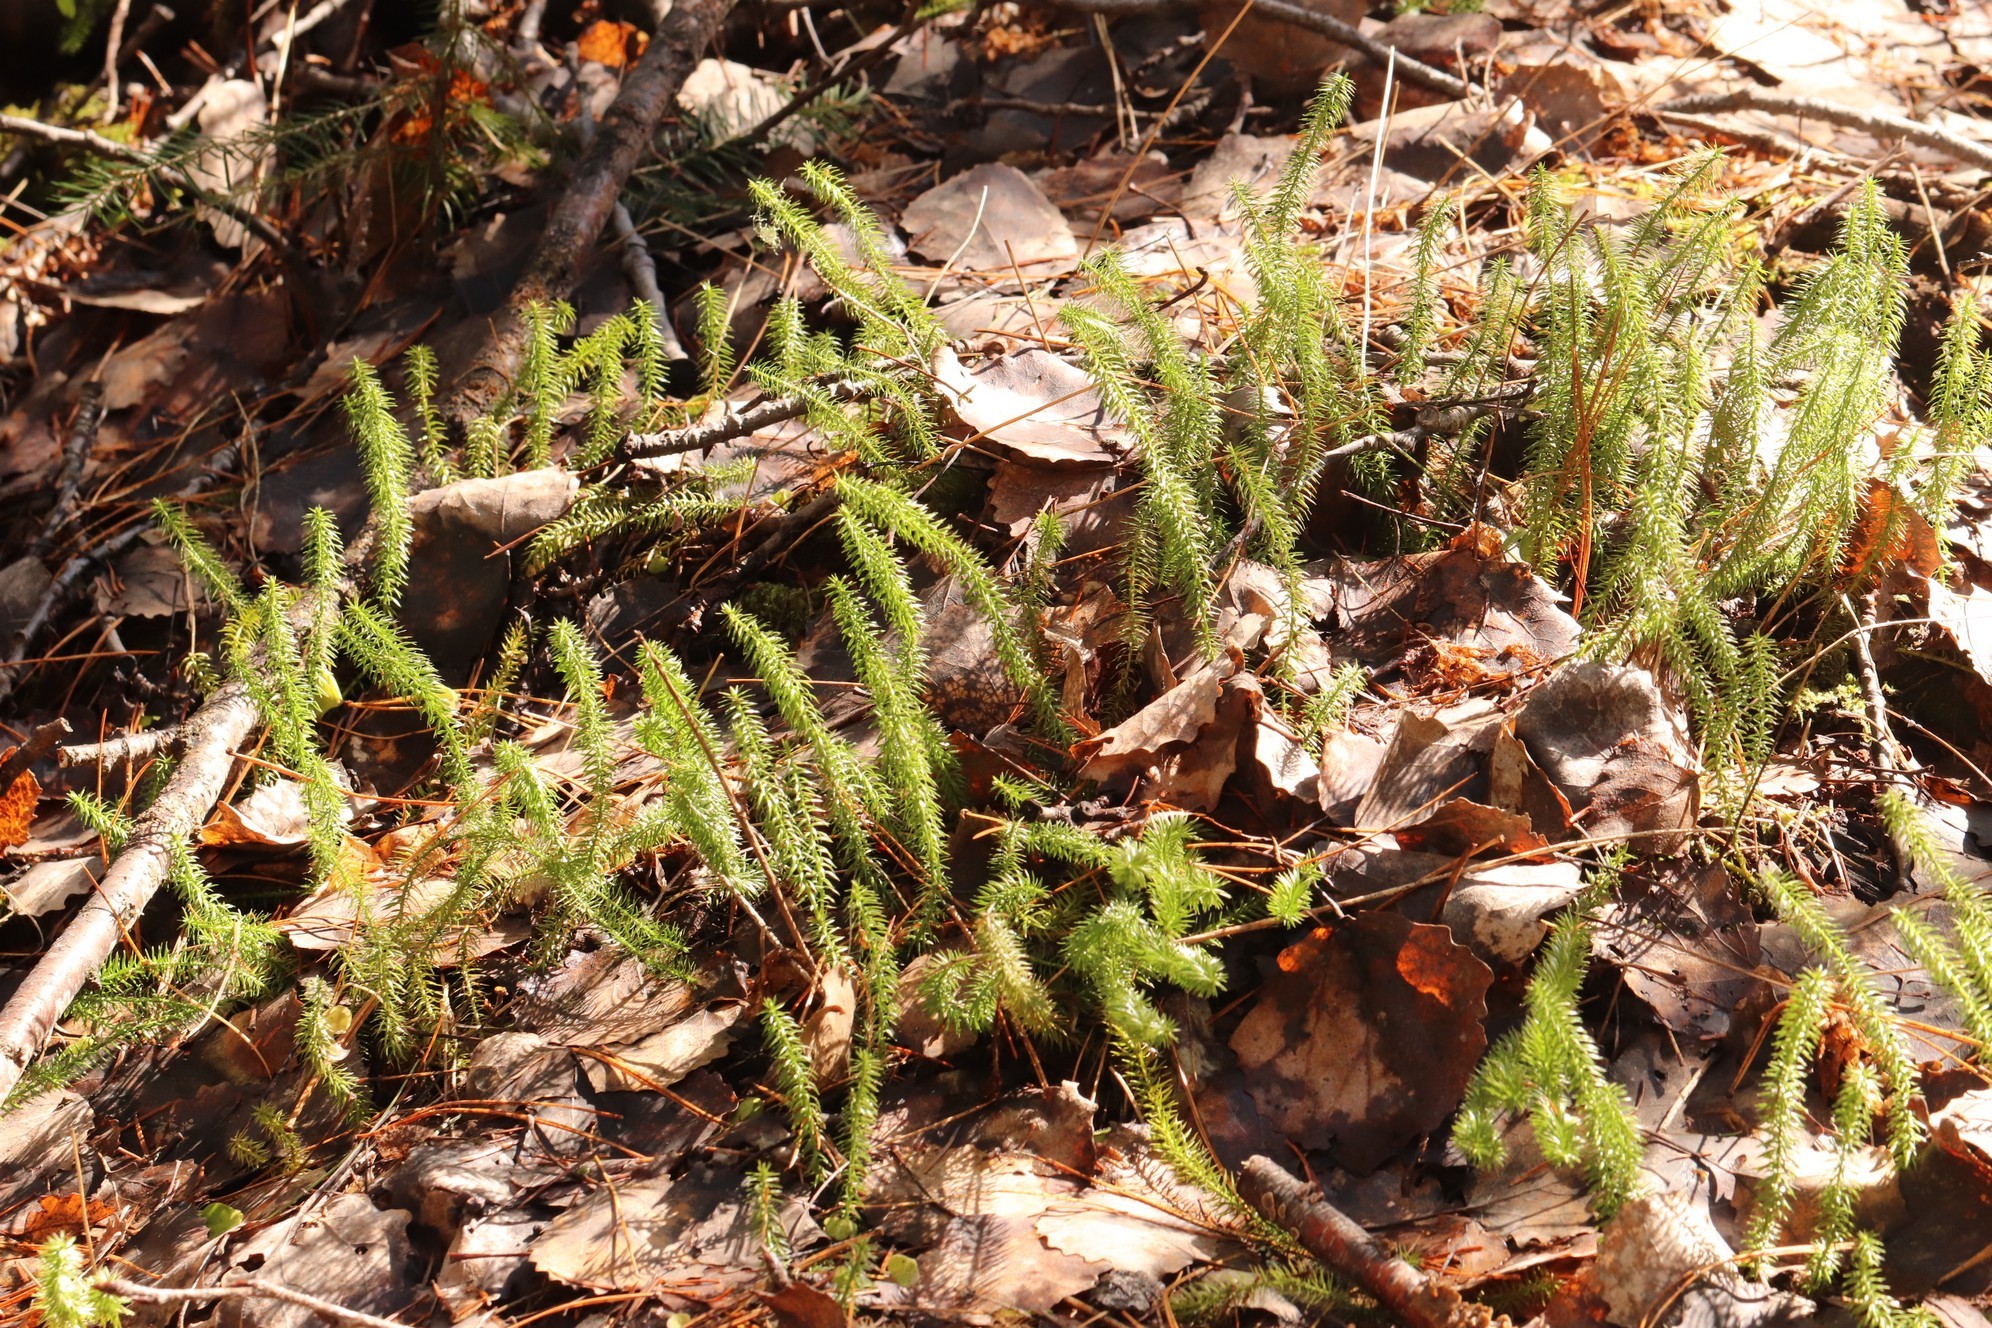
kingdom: Plantae
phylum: Tracheophyta
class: Lycopodiopsida
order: Lycopodiales
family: Lycopodiaceae
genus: Spinulum
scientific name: Spinulum annotinum
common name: Interrupted club-moss
